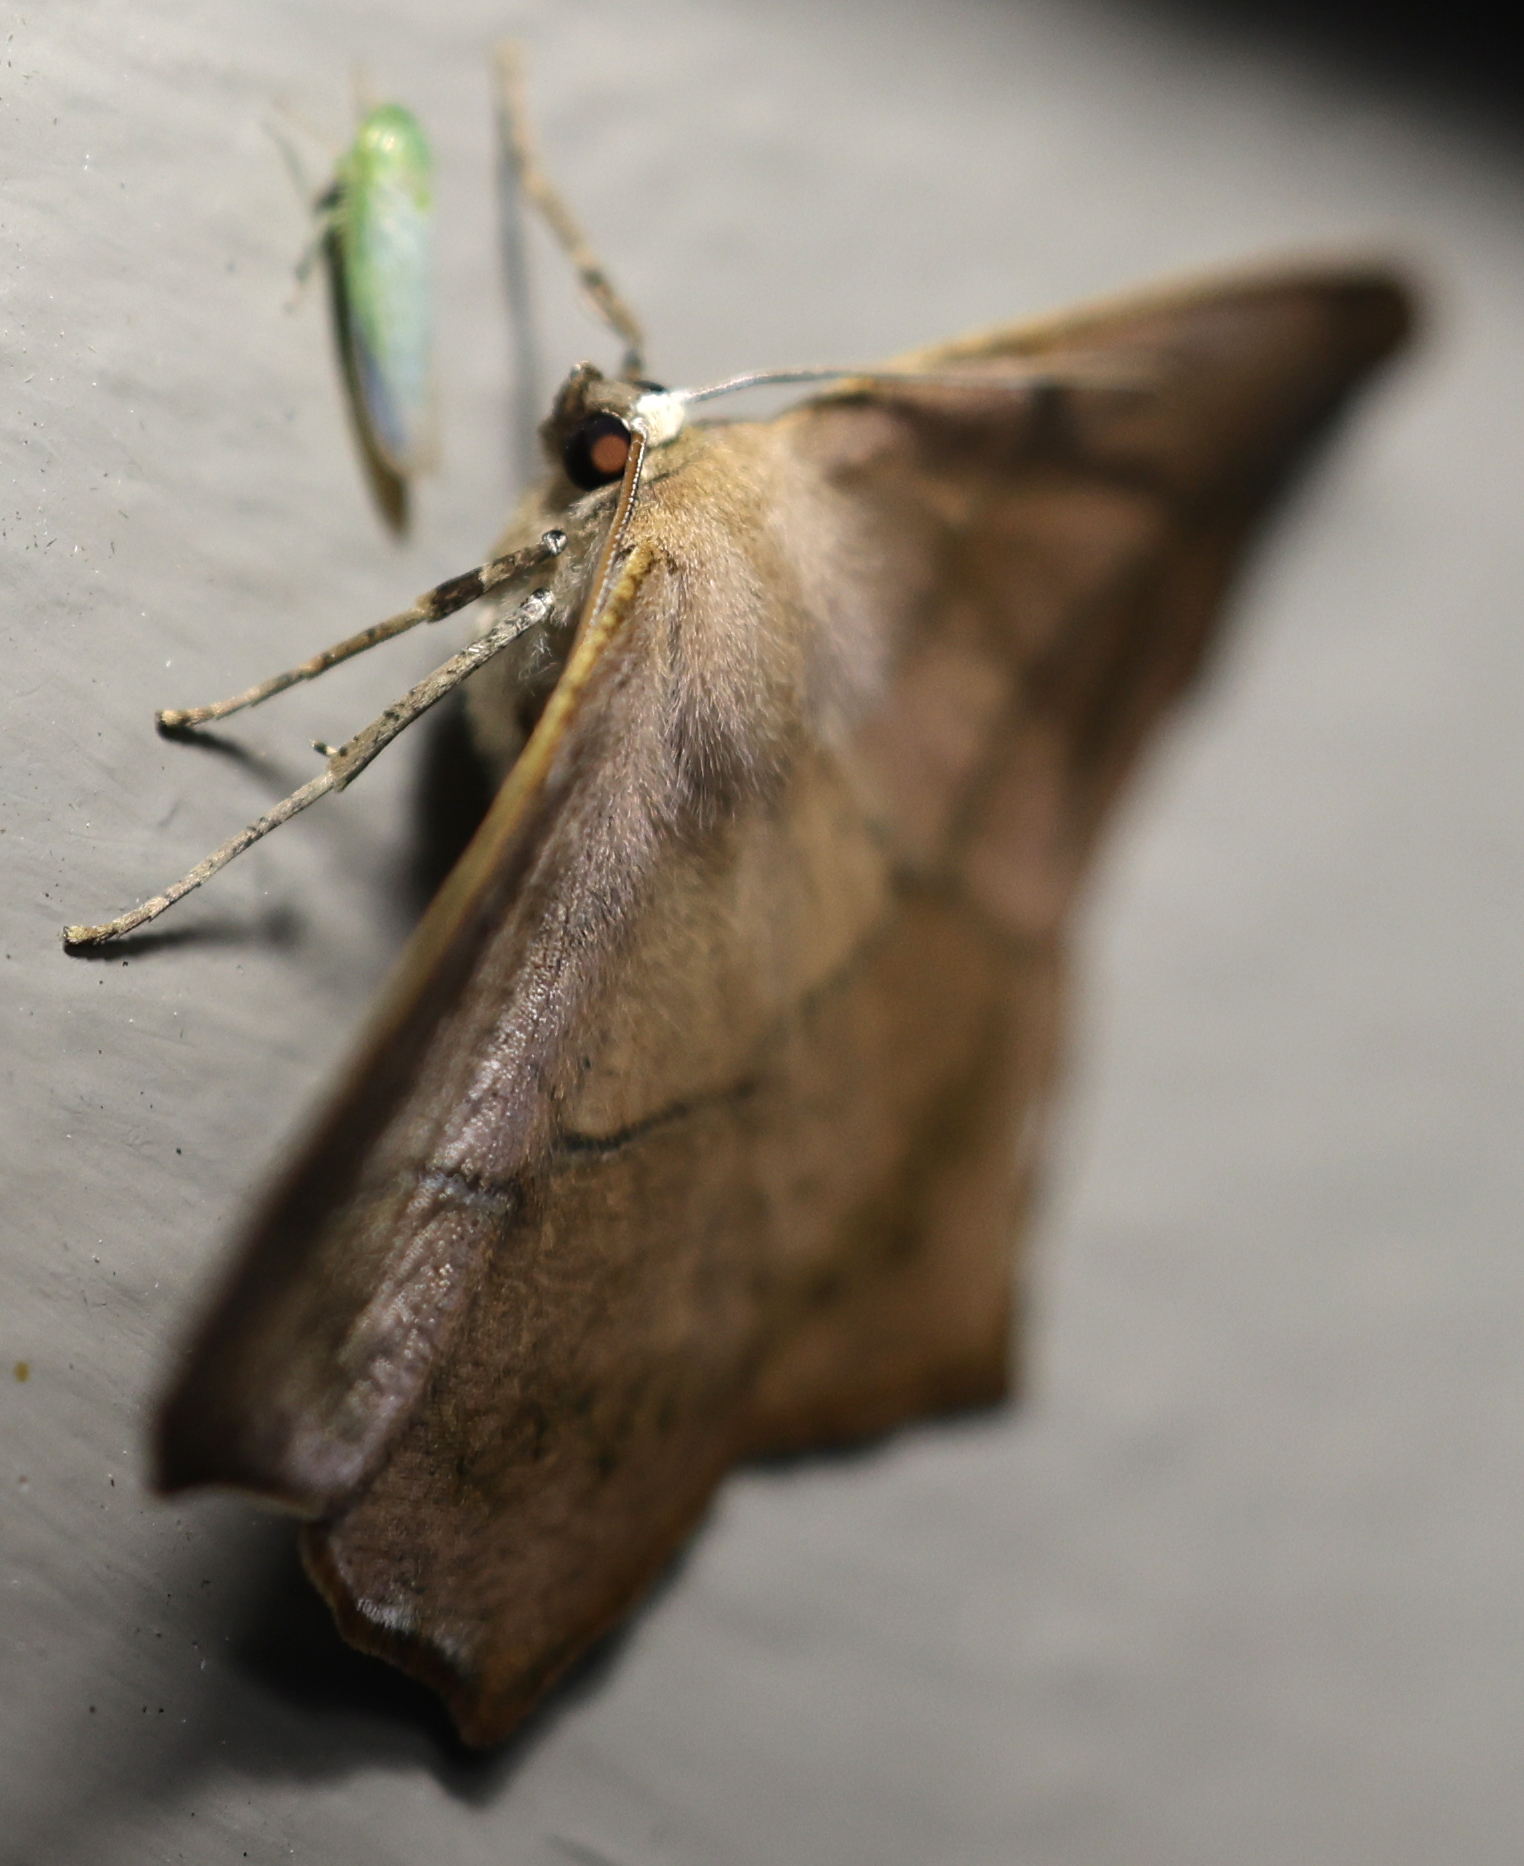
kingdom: Animalia
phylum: Arthropoda
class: Insecta
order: Lepidoptera
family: Geometridae
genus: Prochoerodes
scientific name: Prochoerodes lineola
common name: Large maple spanworm
